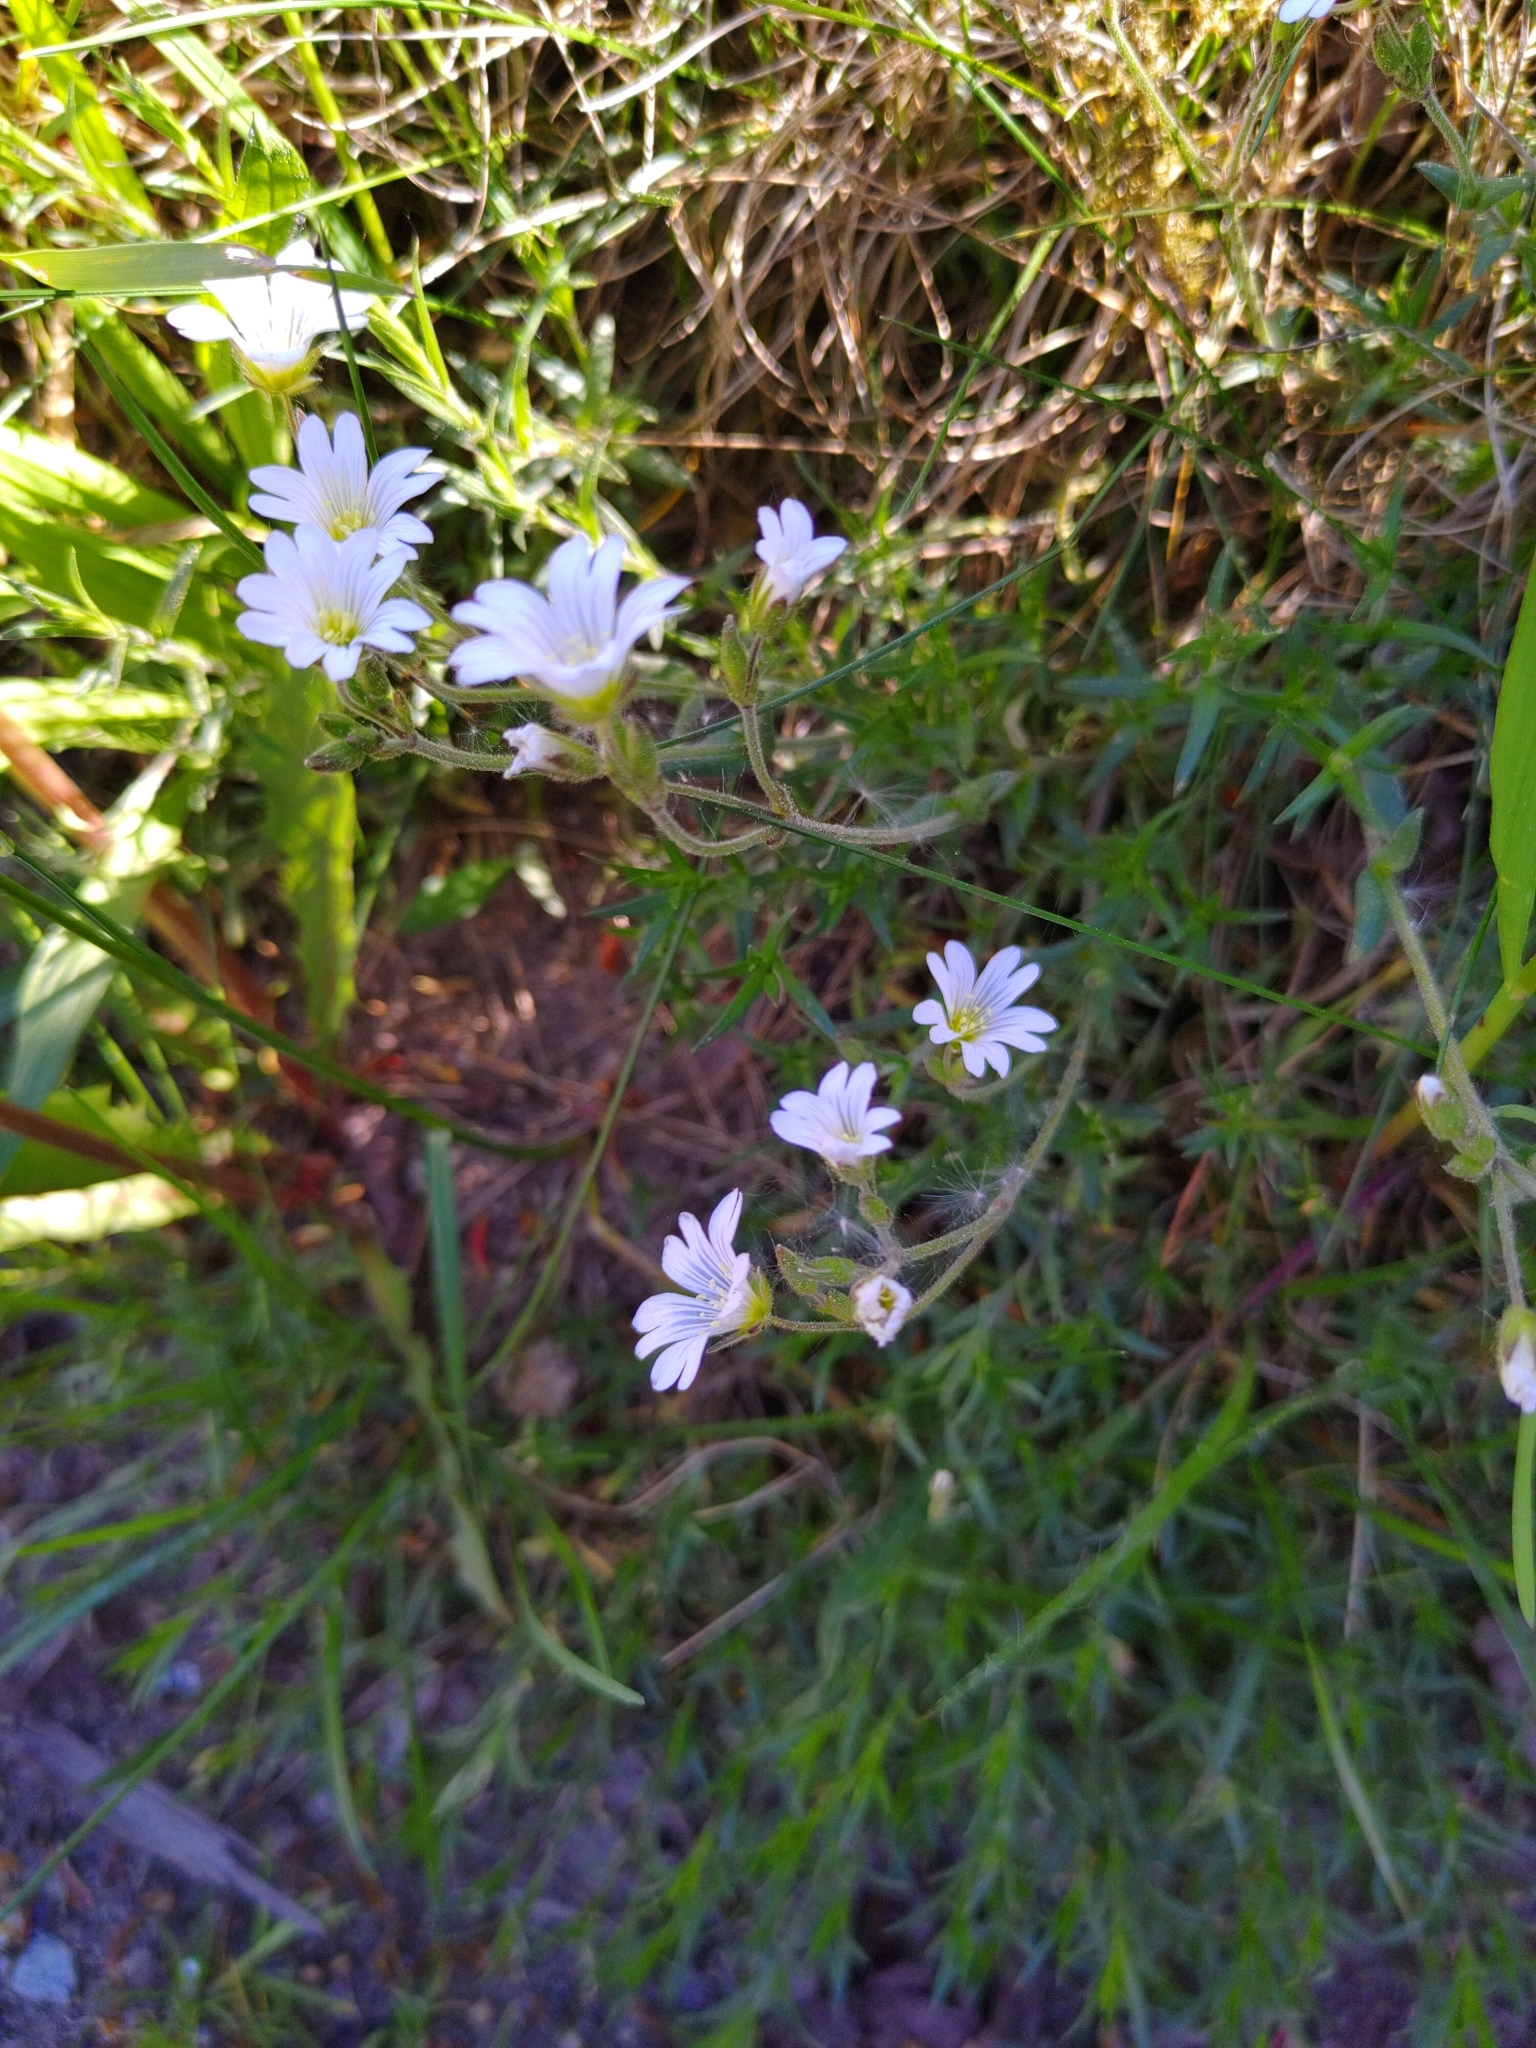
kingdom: Plantae
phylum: Tracheophyta
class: Magnoliopsida
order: Caryophyllales
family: Caryophyllaceae
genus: Cerastium
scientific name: Cerastium arvense
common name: Field mouse-ear
